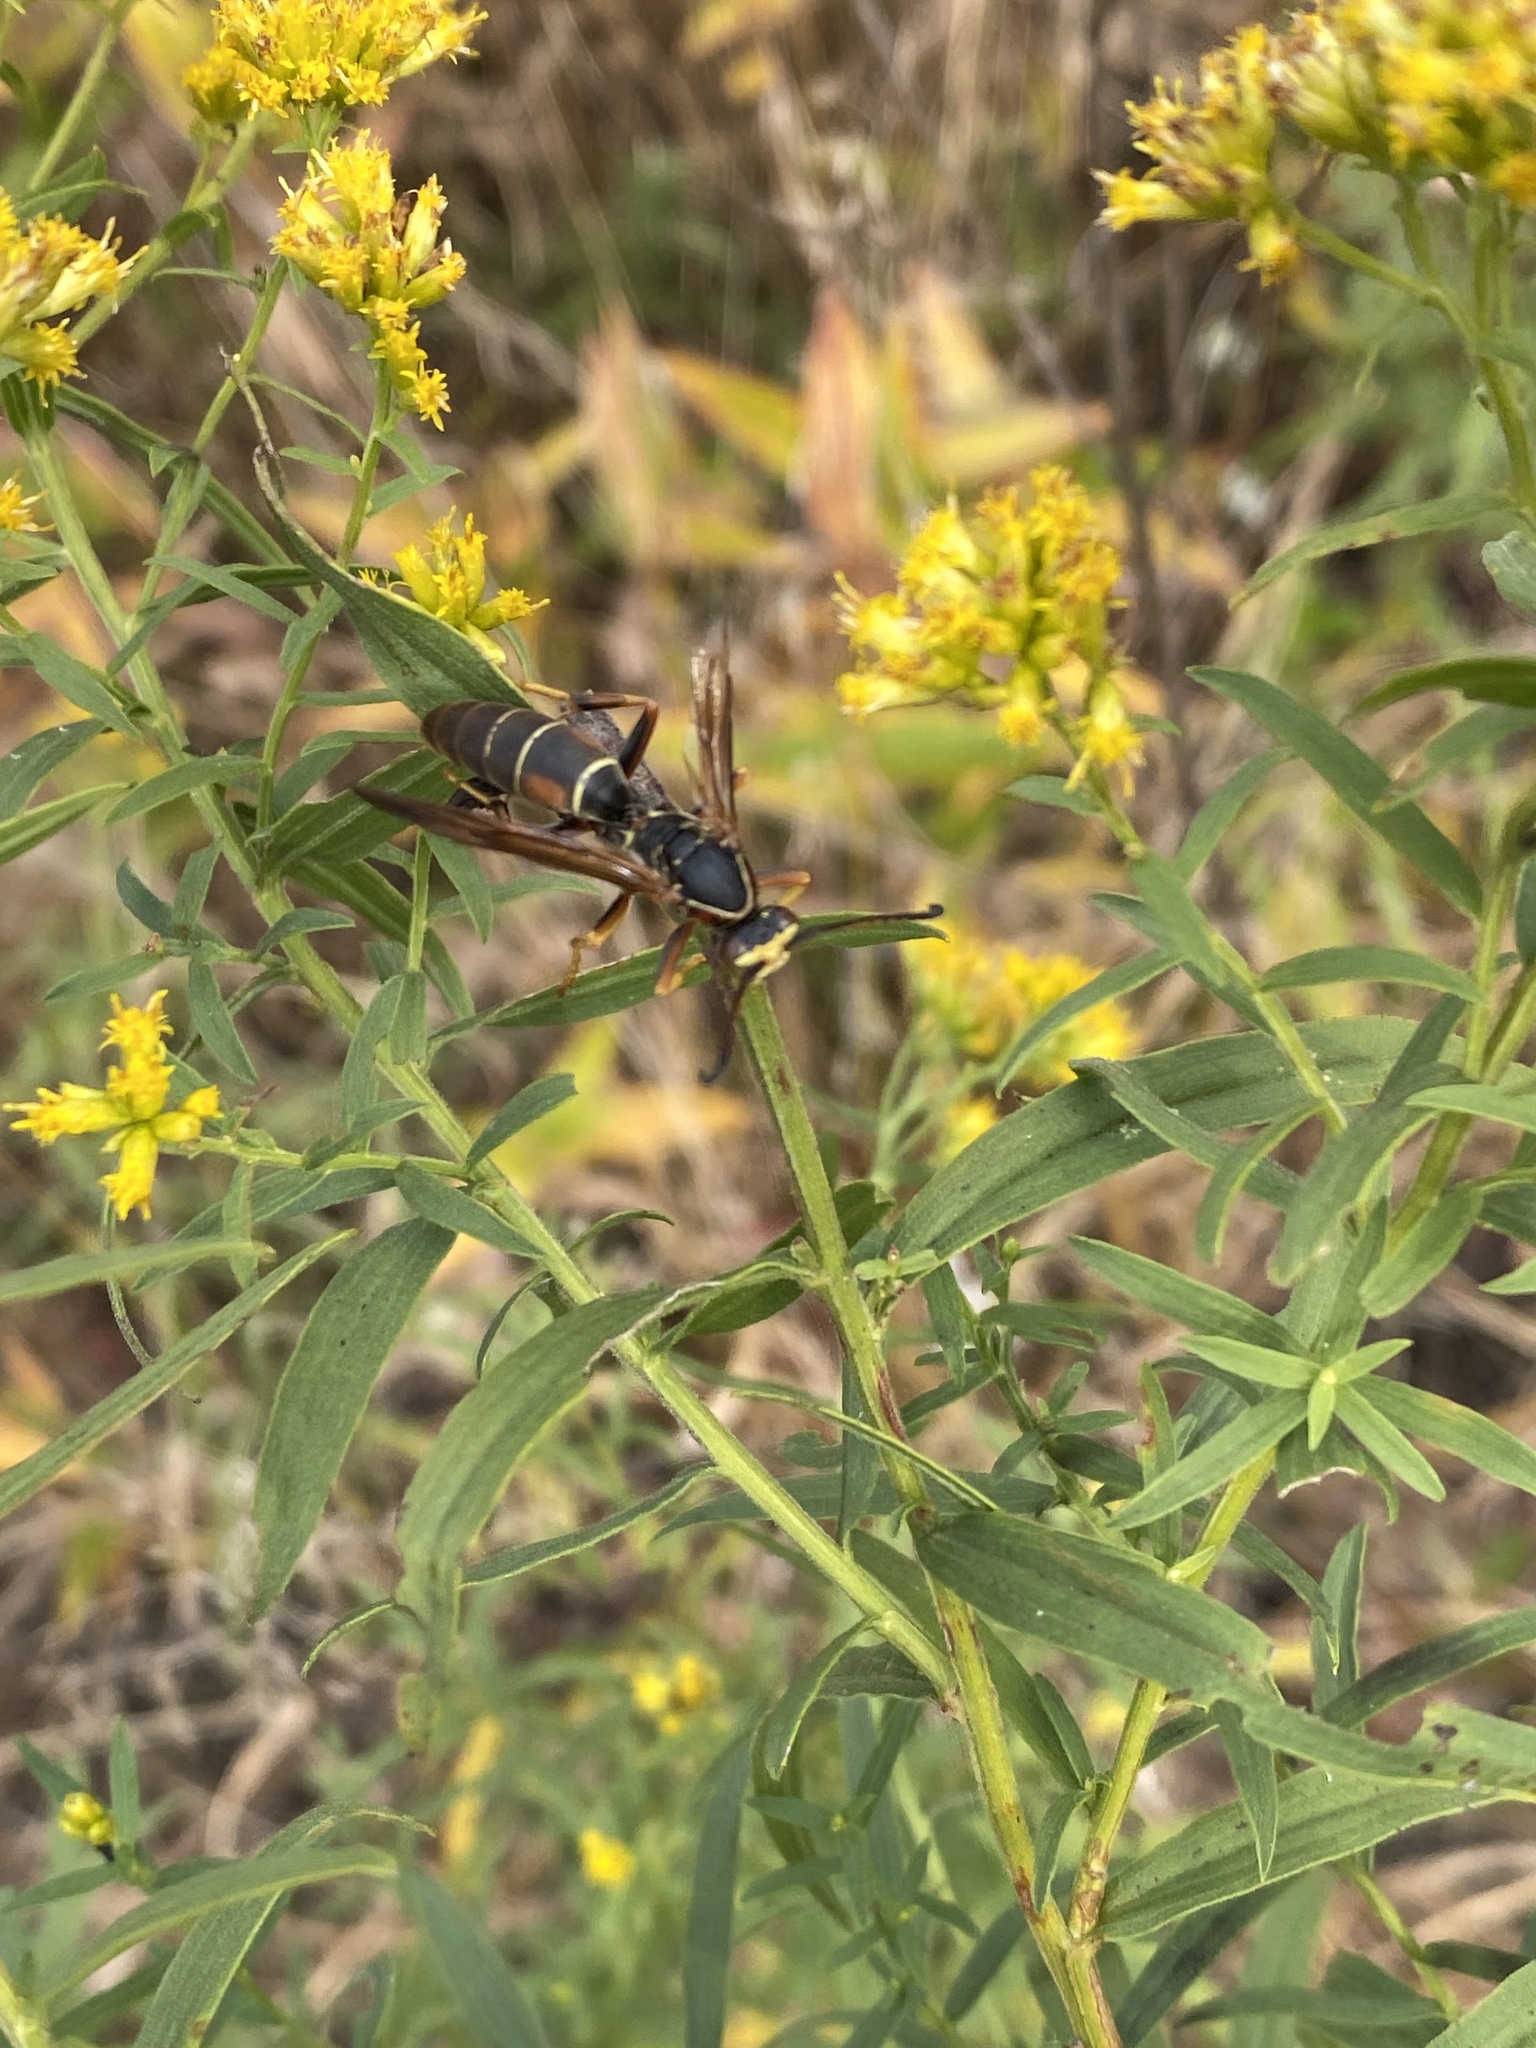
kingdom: Animalia
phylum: Arthropoda
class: Insecta
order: Hymenoptera
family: Eumenidae
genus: Polistes
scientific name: Polistes fuscatus
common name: Dark paper wasp
